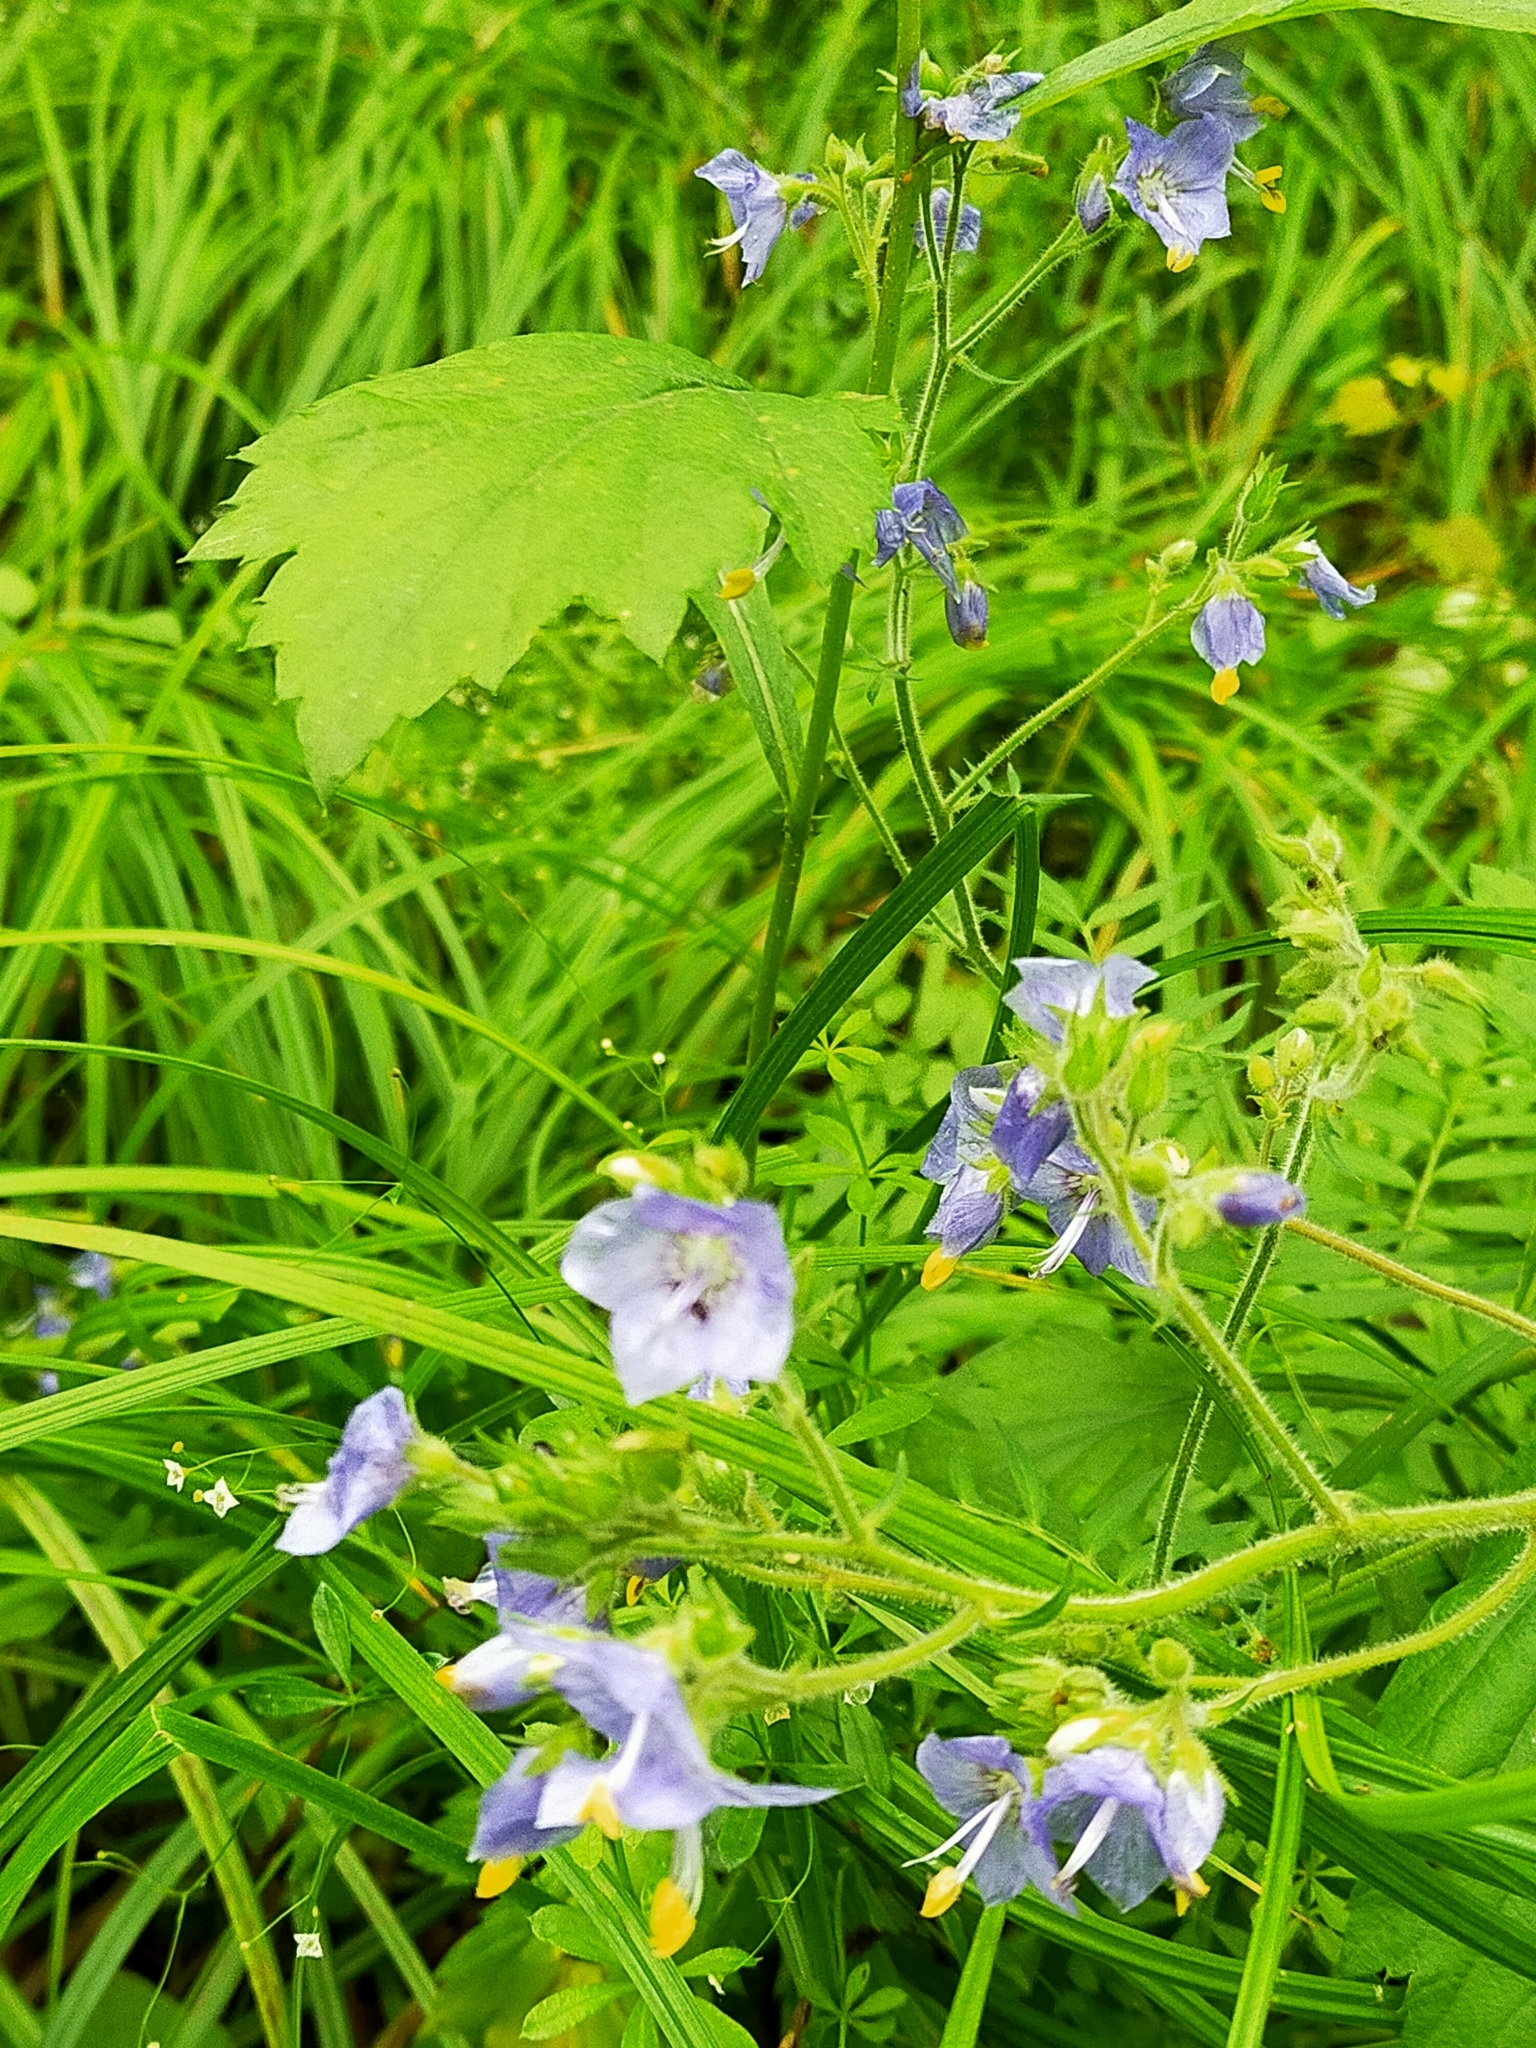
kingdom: Plantae
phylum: Tracheophyta
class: Magnoliopsida
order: Ericales
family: Polemoniaceae
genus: Polemonium
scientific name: Polemonium acutiflorum
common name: Tall jacob's-ladder
